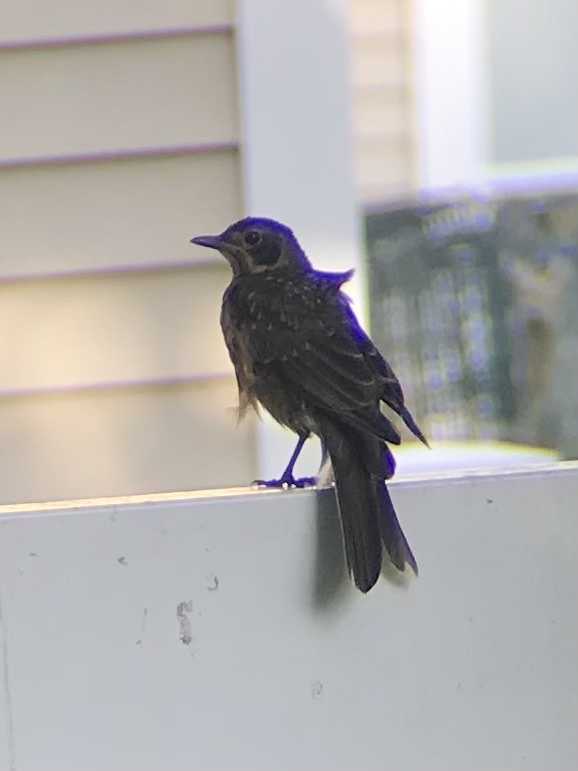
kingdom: Animalia
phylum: Chordata
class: Aves
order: Passeriformes
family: Turdidae
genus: Turdus
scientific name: Turdus migratorius
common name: American robin
